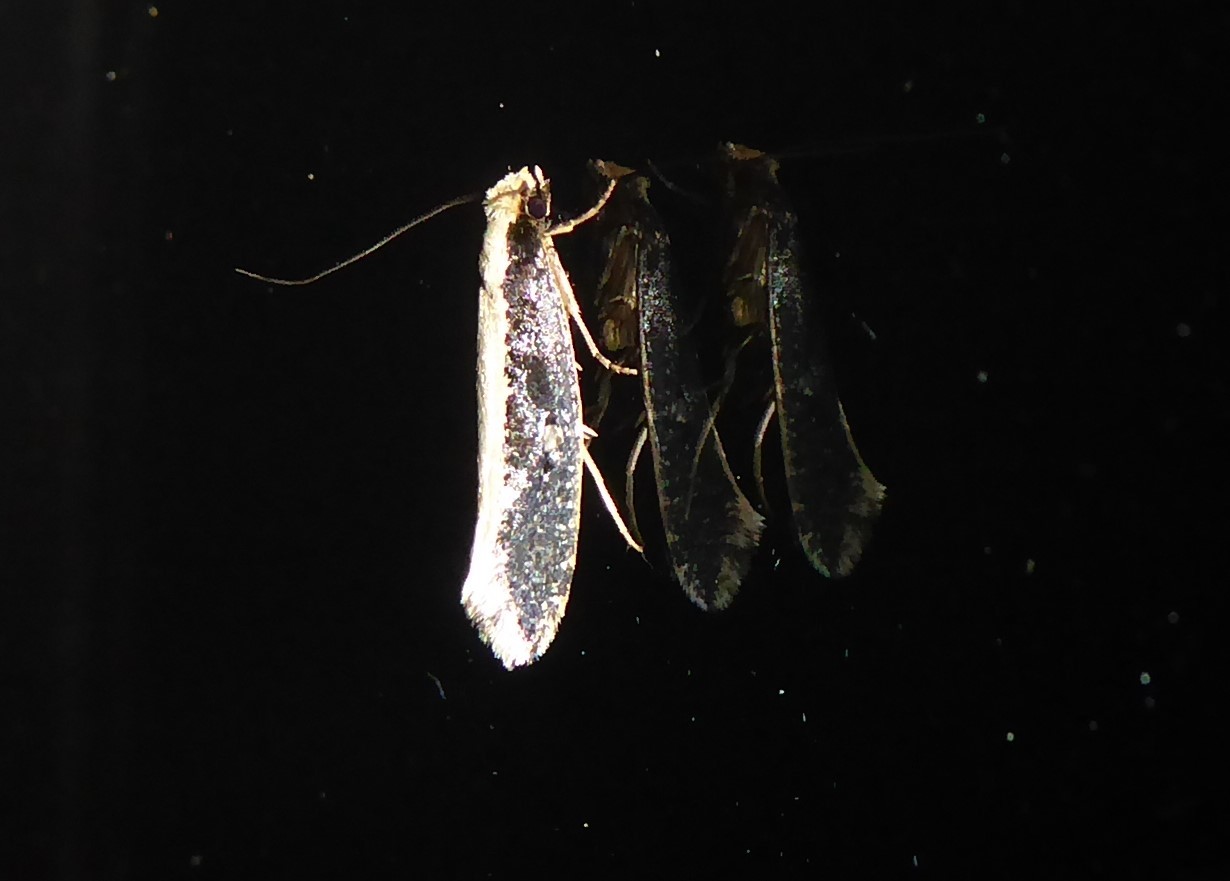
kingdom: Animalia
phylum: Arthropoda
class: Insecta
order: Lepidoptera
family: Tineidae
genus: Monopis
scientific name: Monopis ethelella
